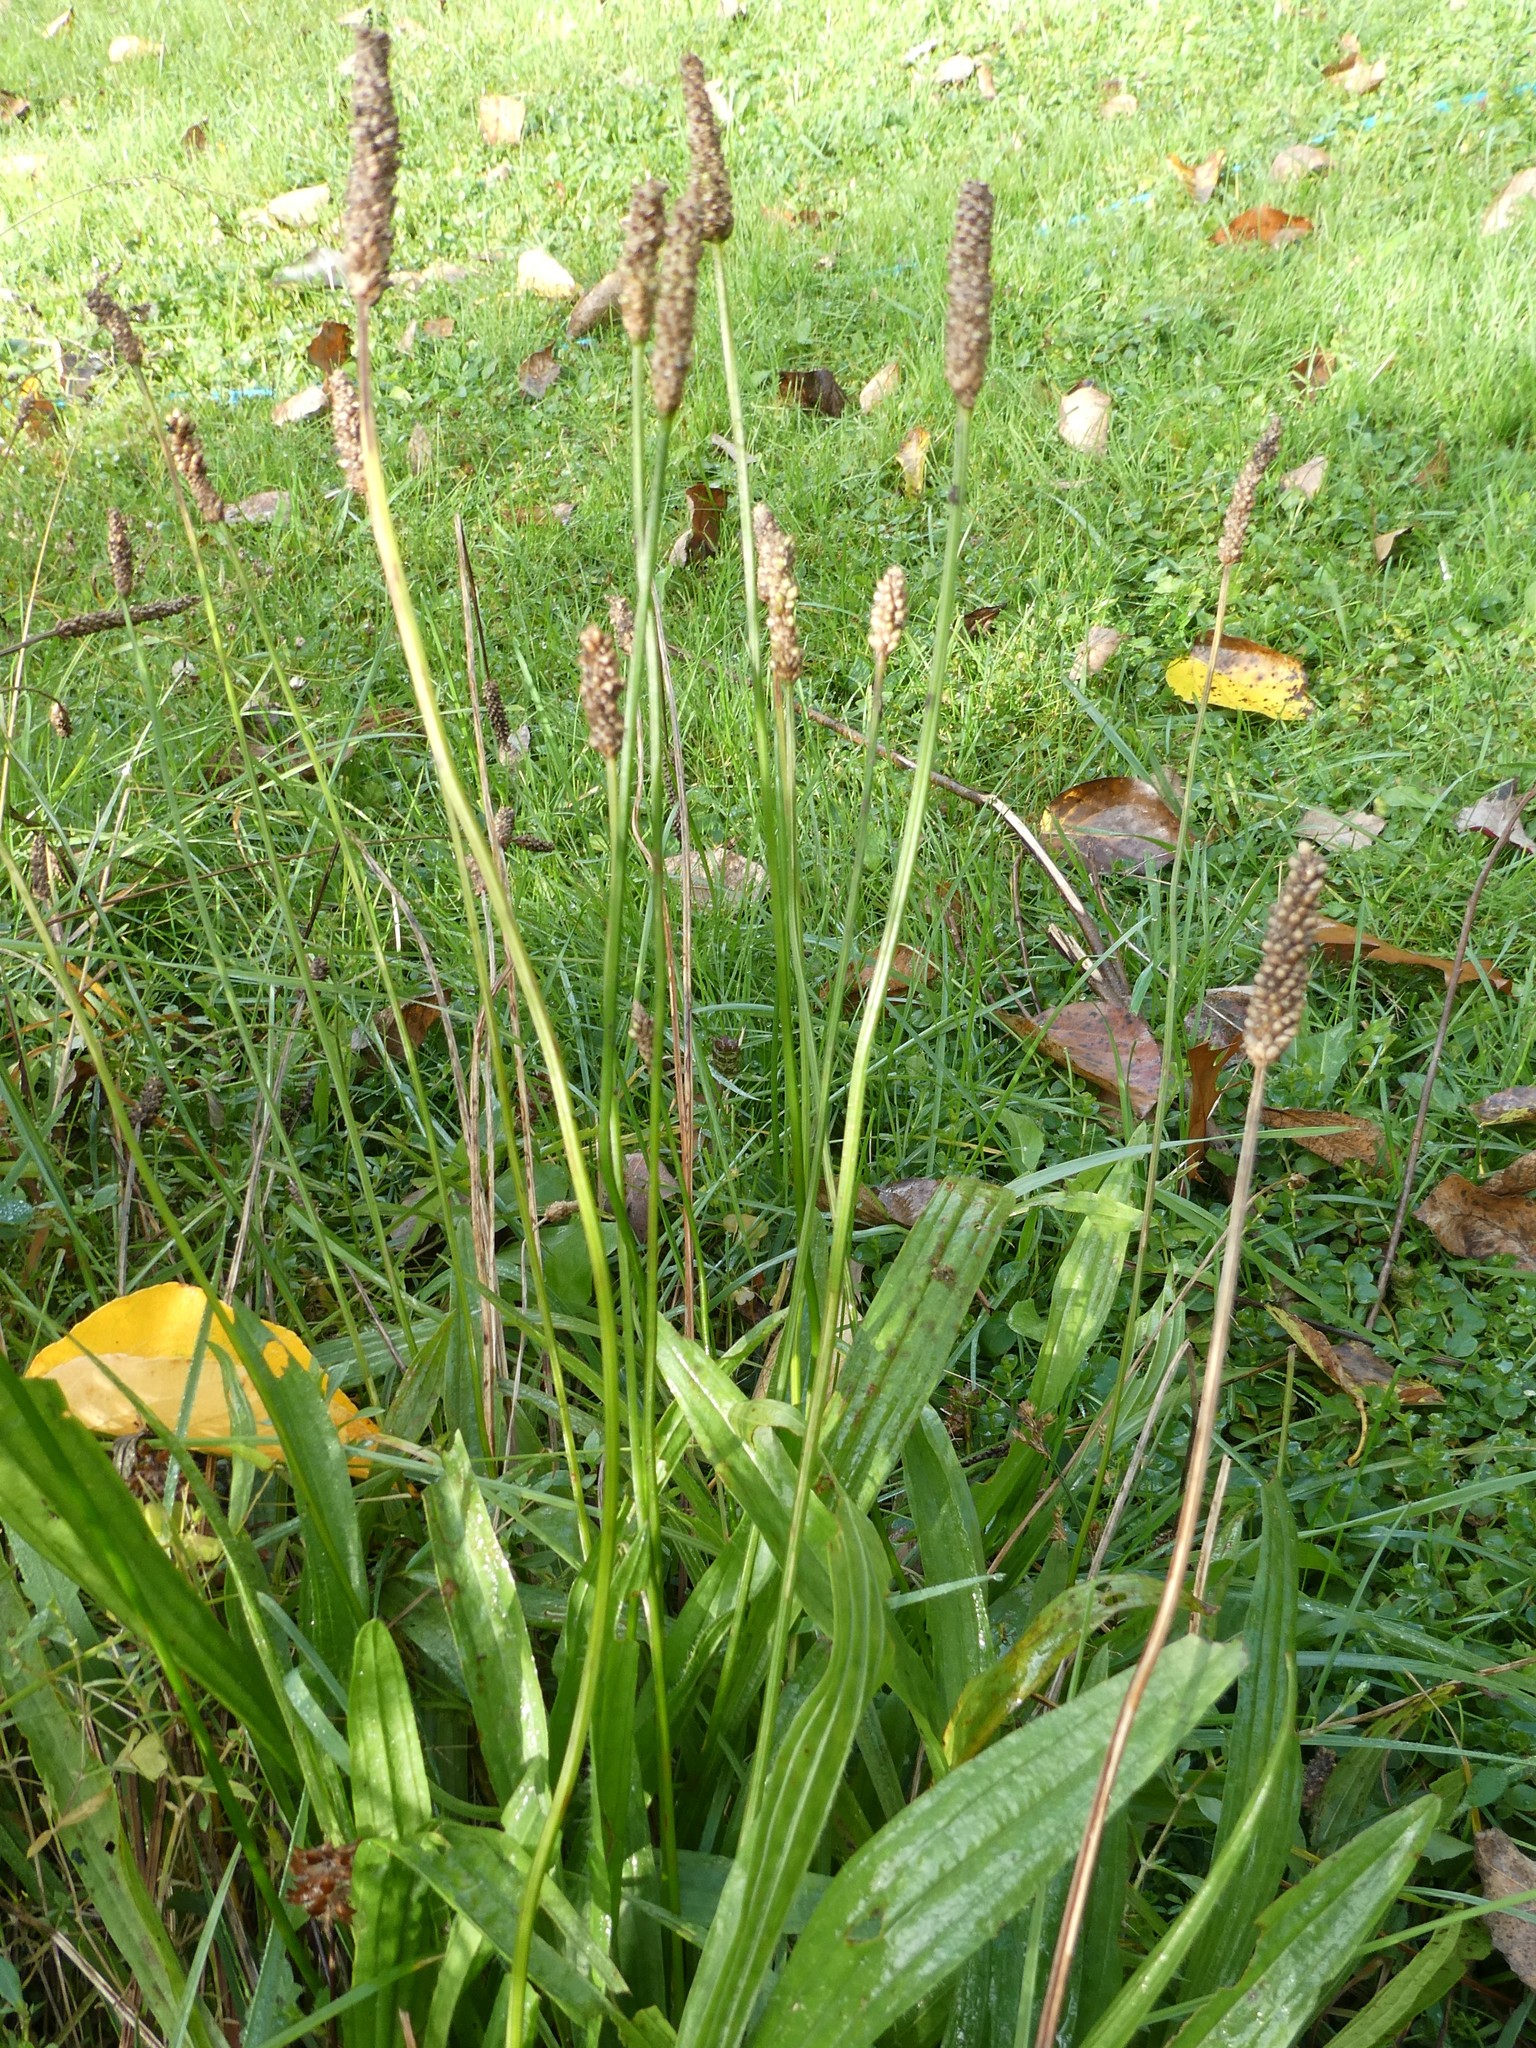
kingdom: Plantae
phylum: Tracheophyta
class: Magnoliopsida
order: Lamiales
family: Plantaginaceae
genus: Plantago
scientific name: Plantago lanceolata
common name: Ribwort plantain
